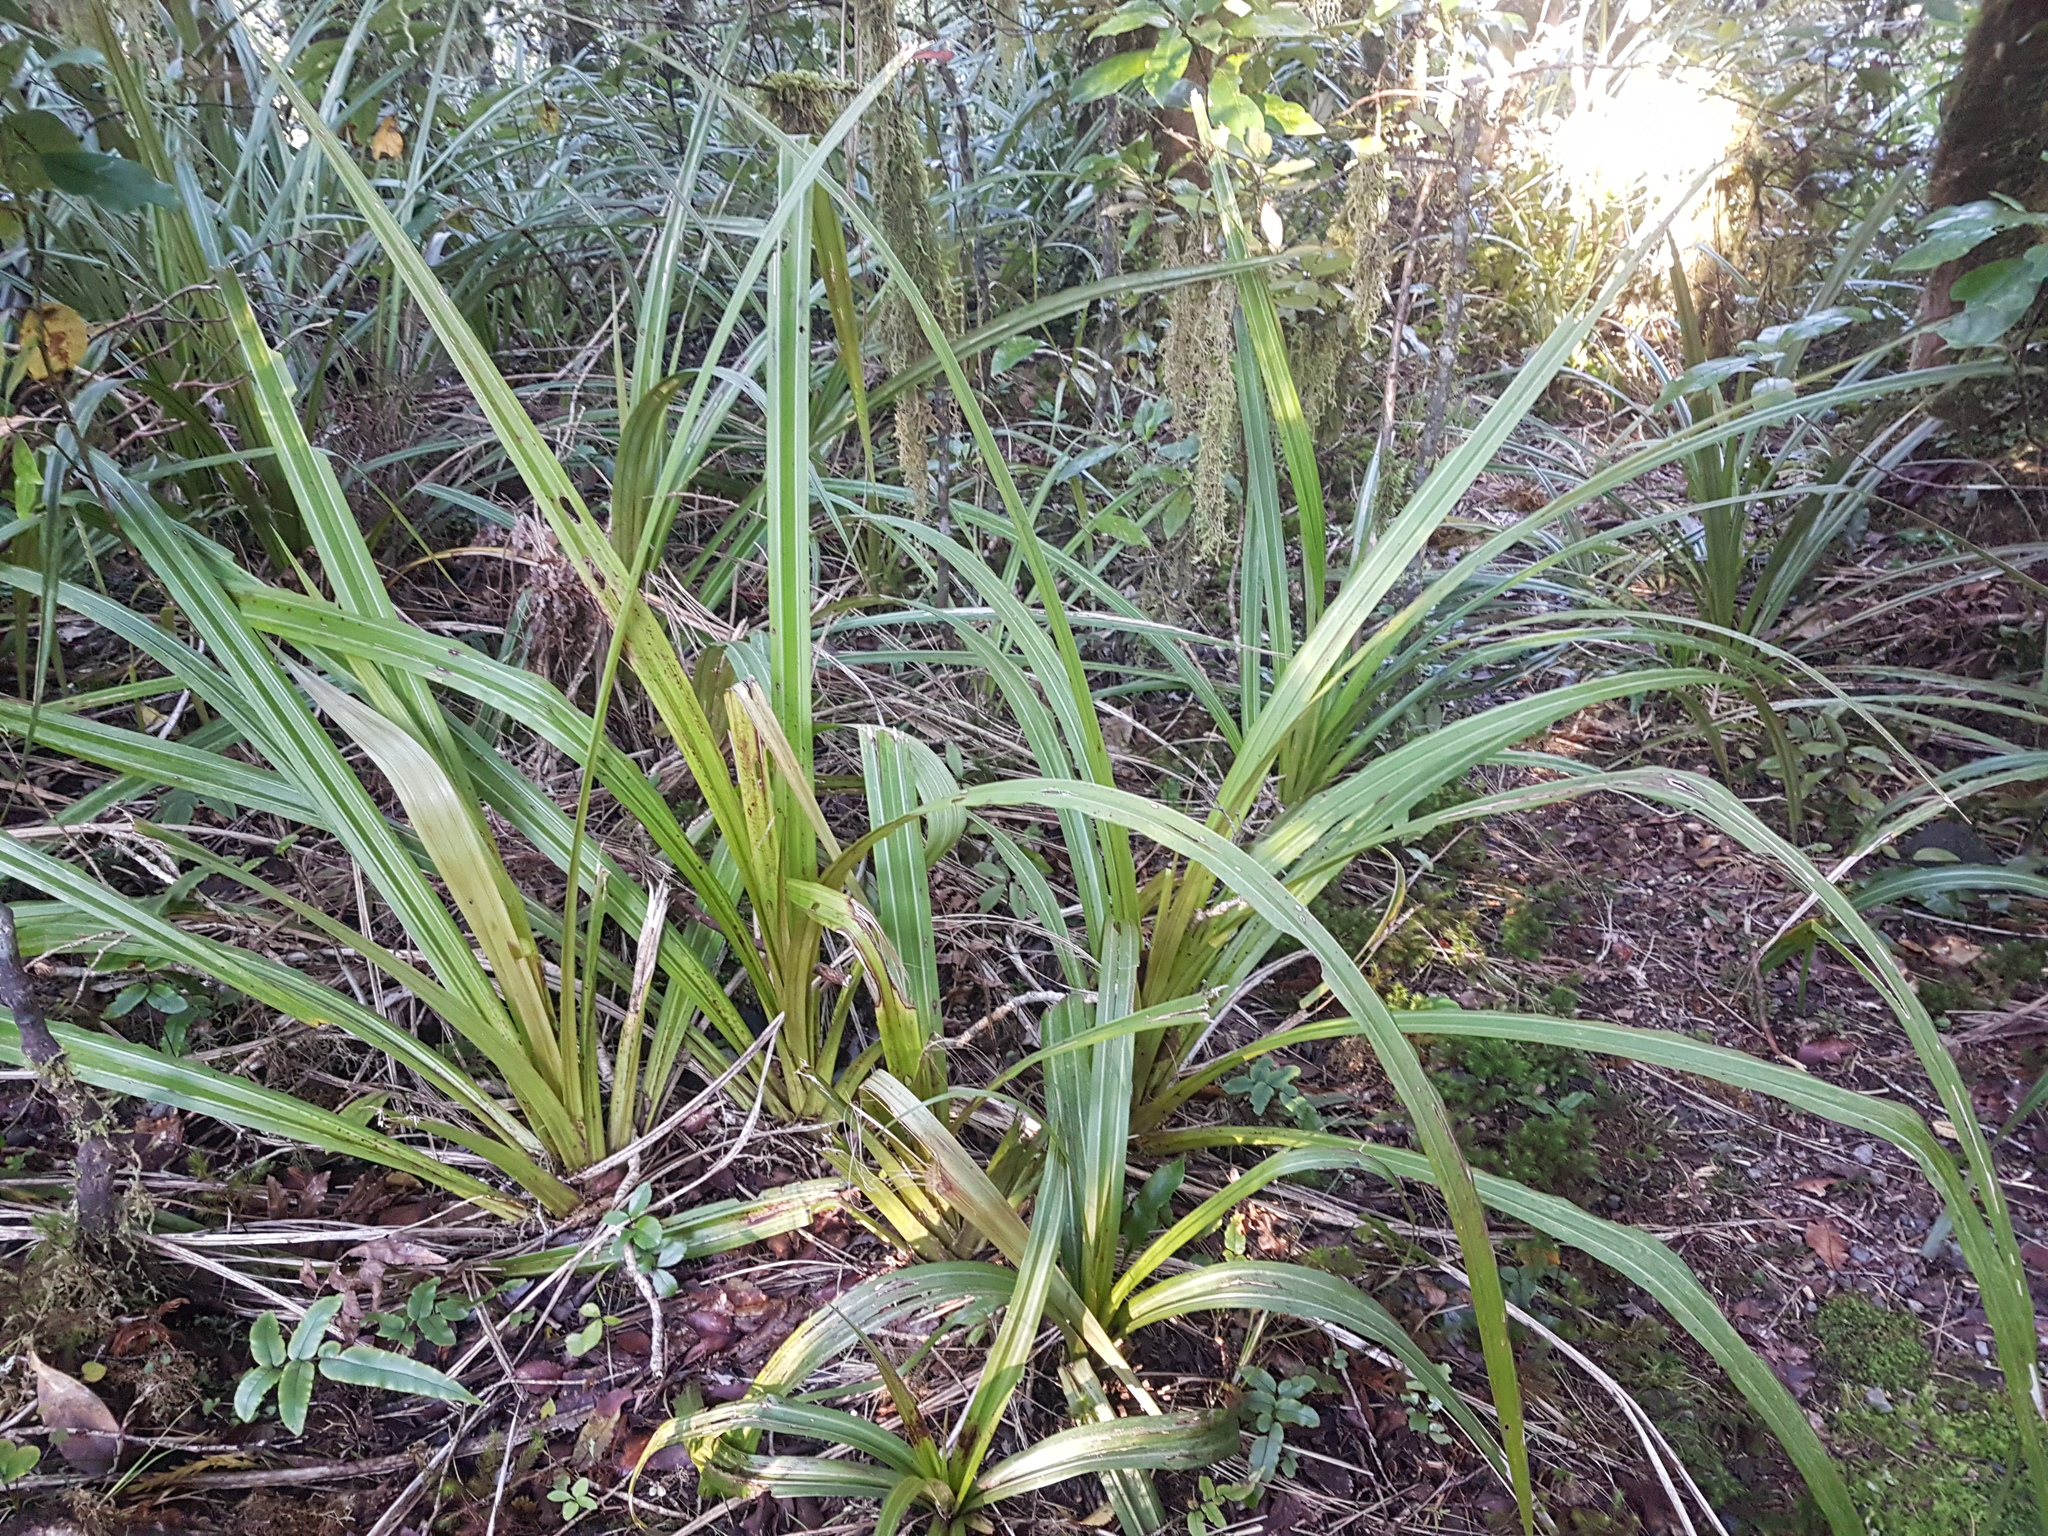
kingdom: Plantae
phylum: Tracheophyta
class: Liliopsida
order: Asparagales
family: Asteliaceae
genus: Astelia
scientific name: Astelia fragrans
